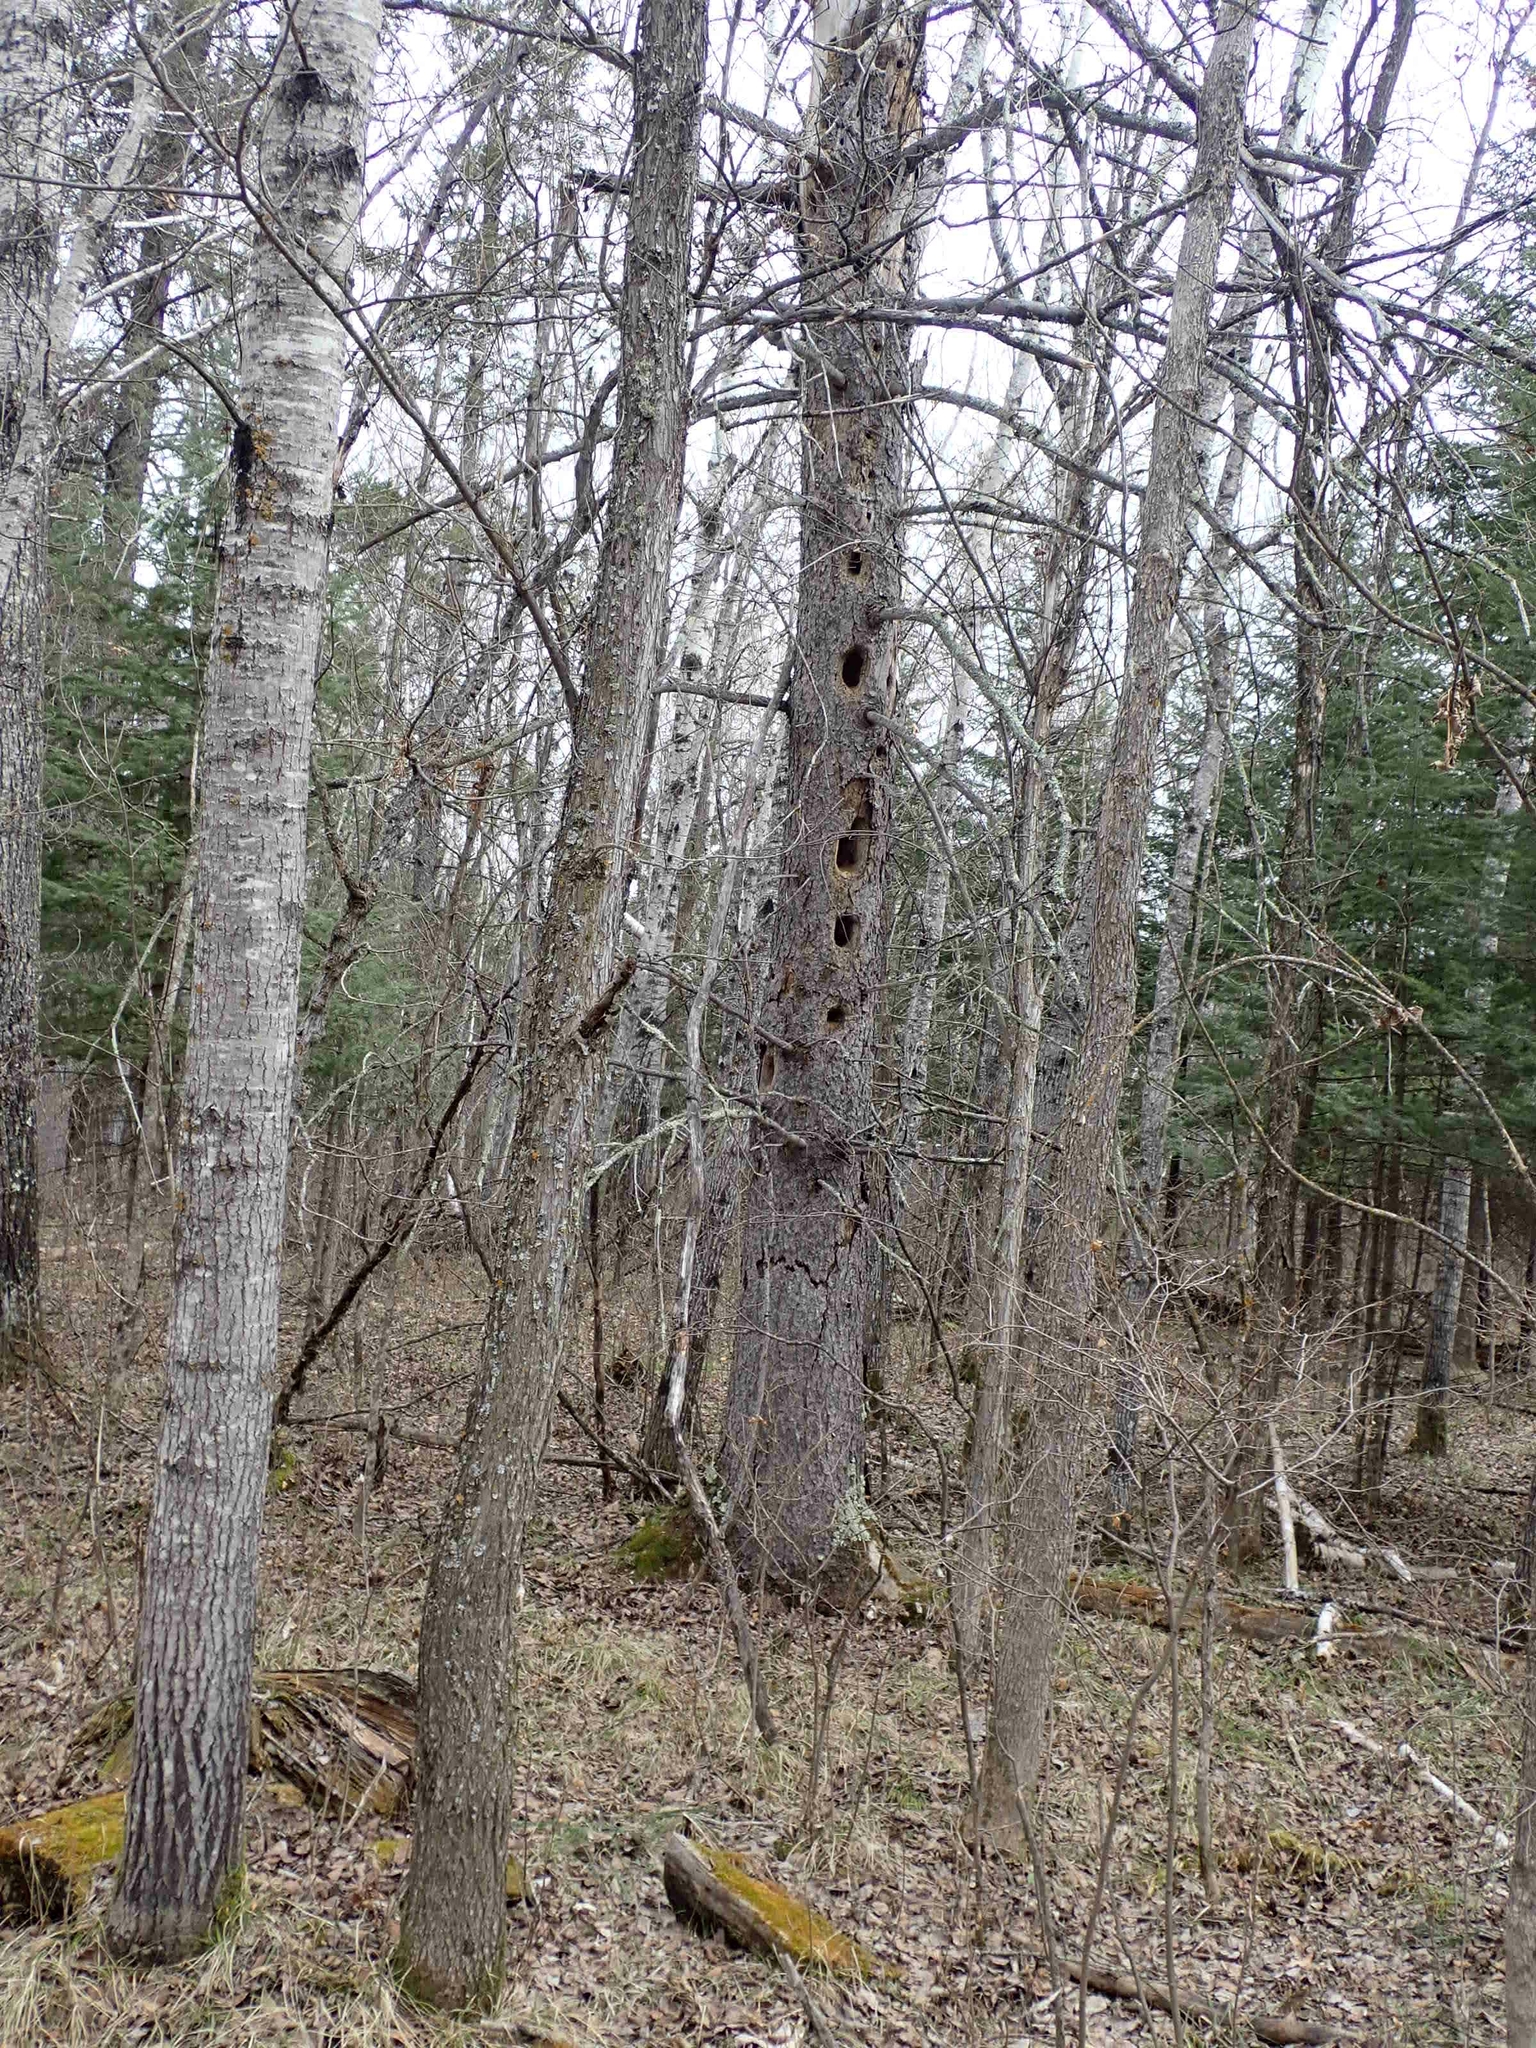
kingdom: Animalia
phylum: Chordata
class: Aves
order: Piciformes
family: Picidae
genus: Dryocopus
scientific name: Dryocopus pileatus
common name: Pileated woodpecker
